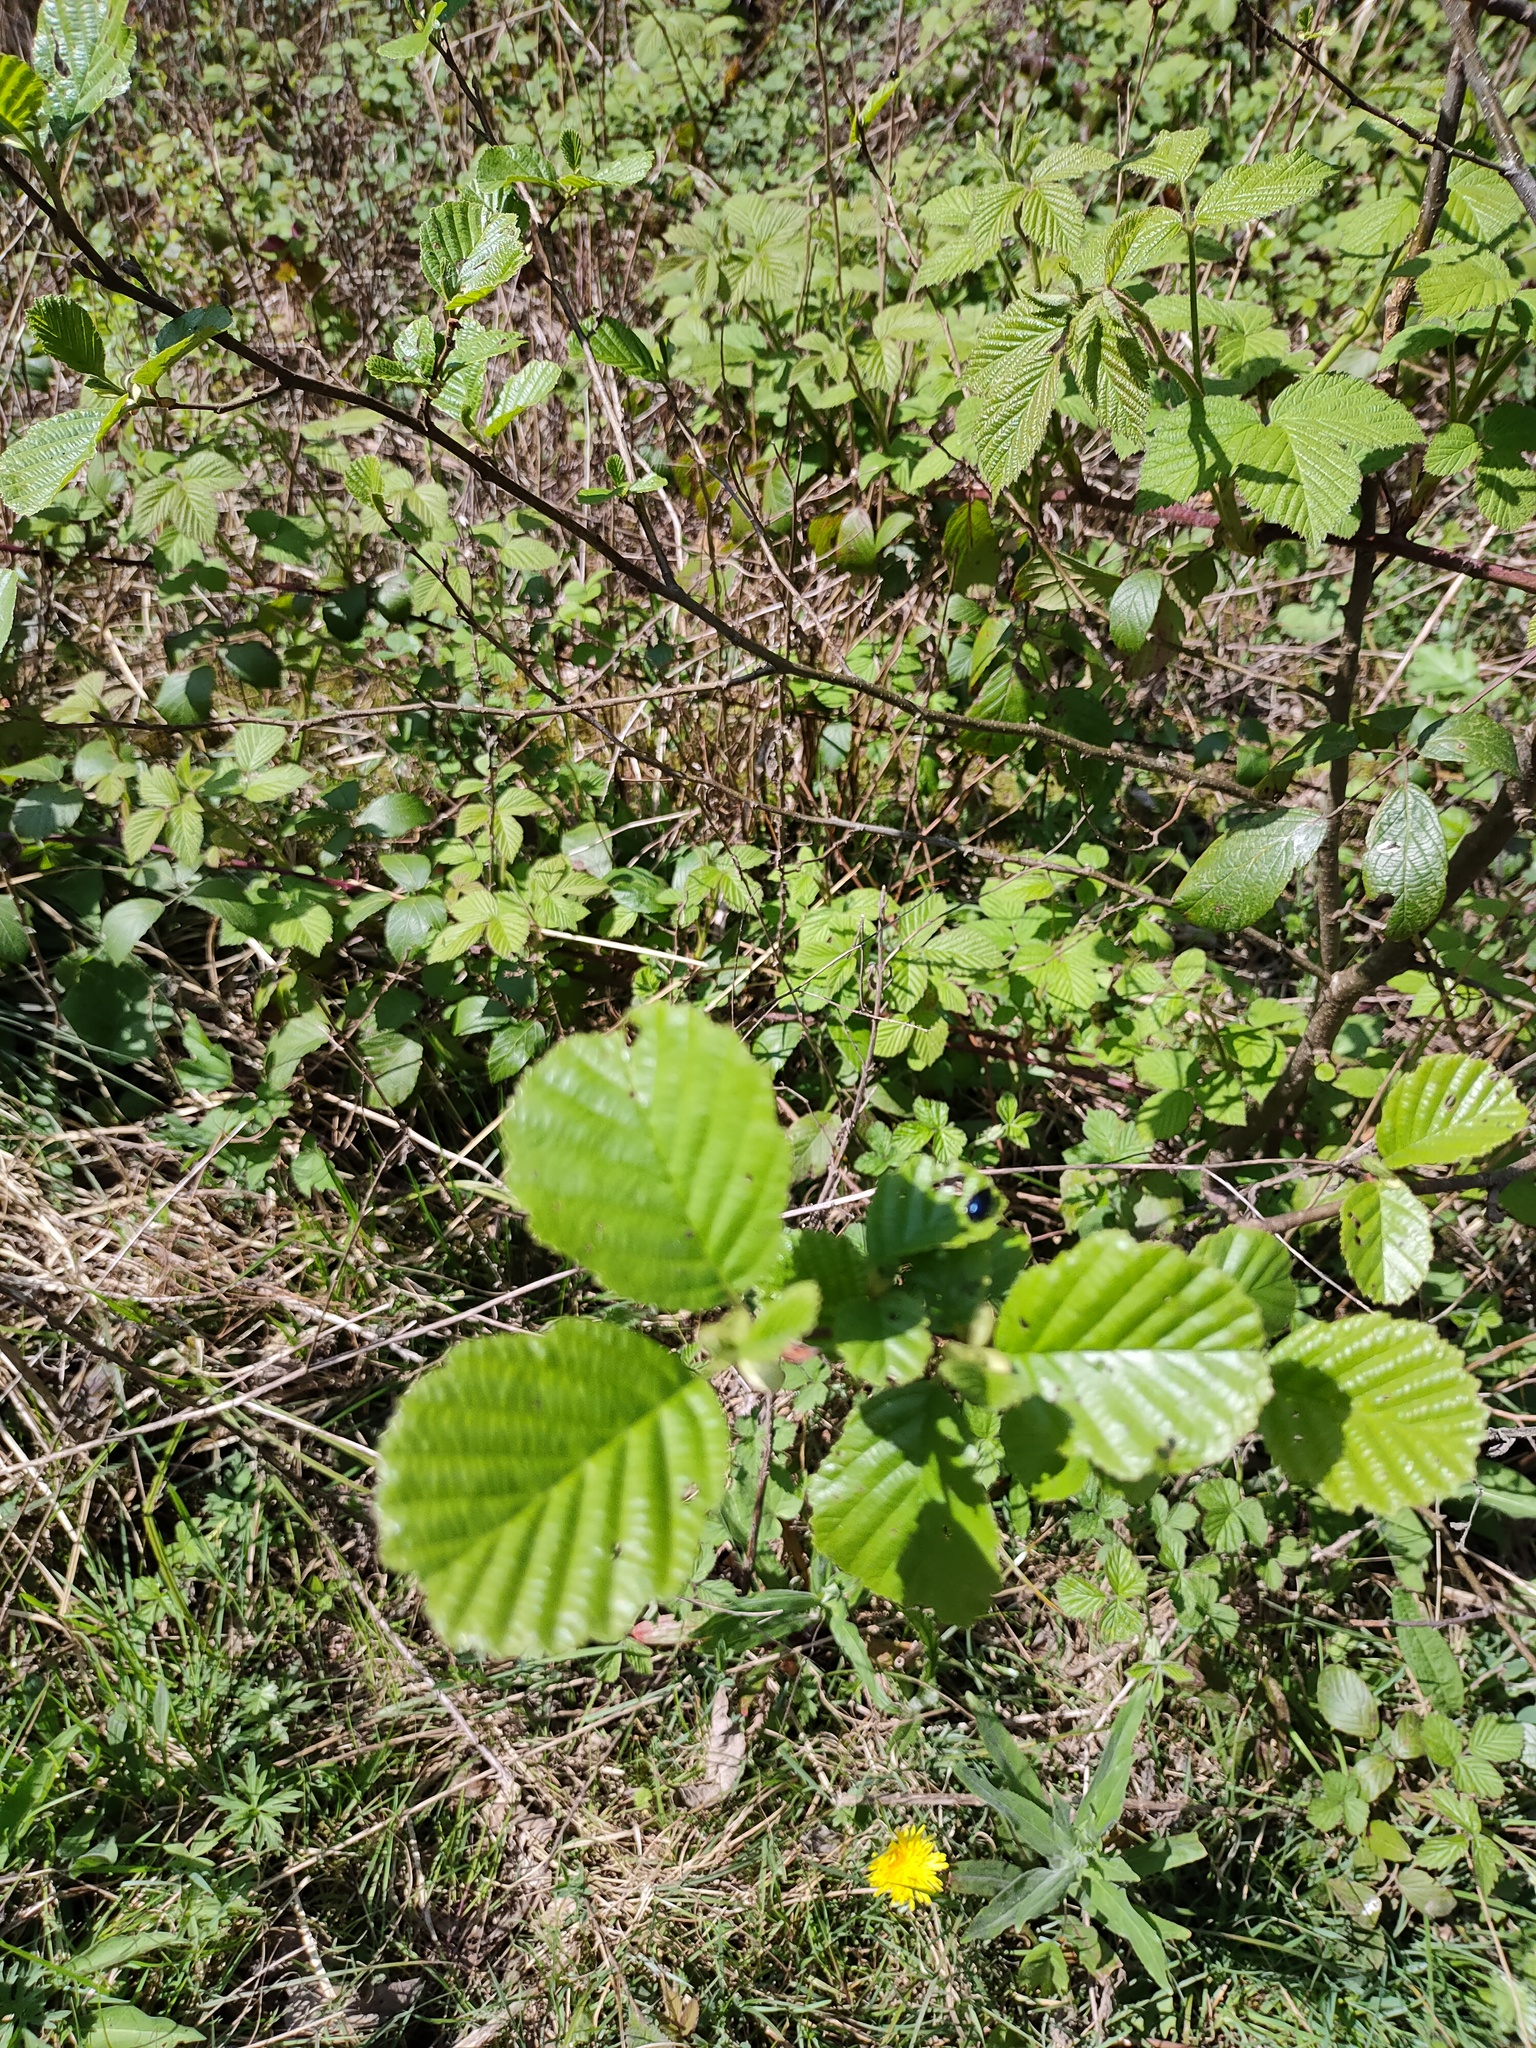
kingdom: Plantae
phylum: Tracheophyta
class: Magnoliopsida
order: Fagales
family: Betulaceae
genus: Alnus
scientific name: Alnus glutinosa
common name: Black alder
